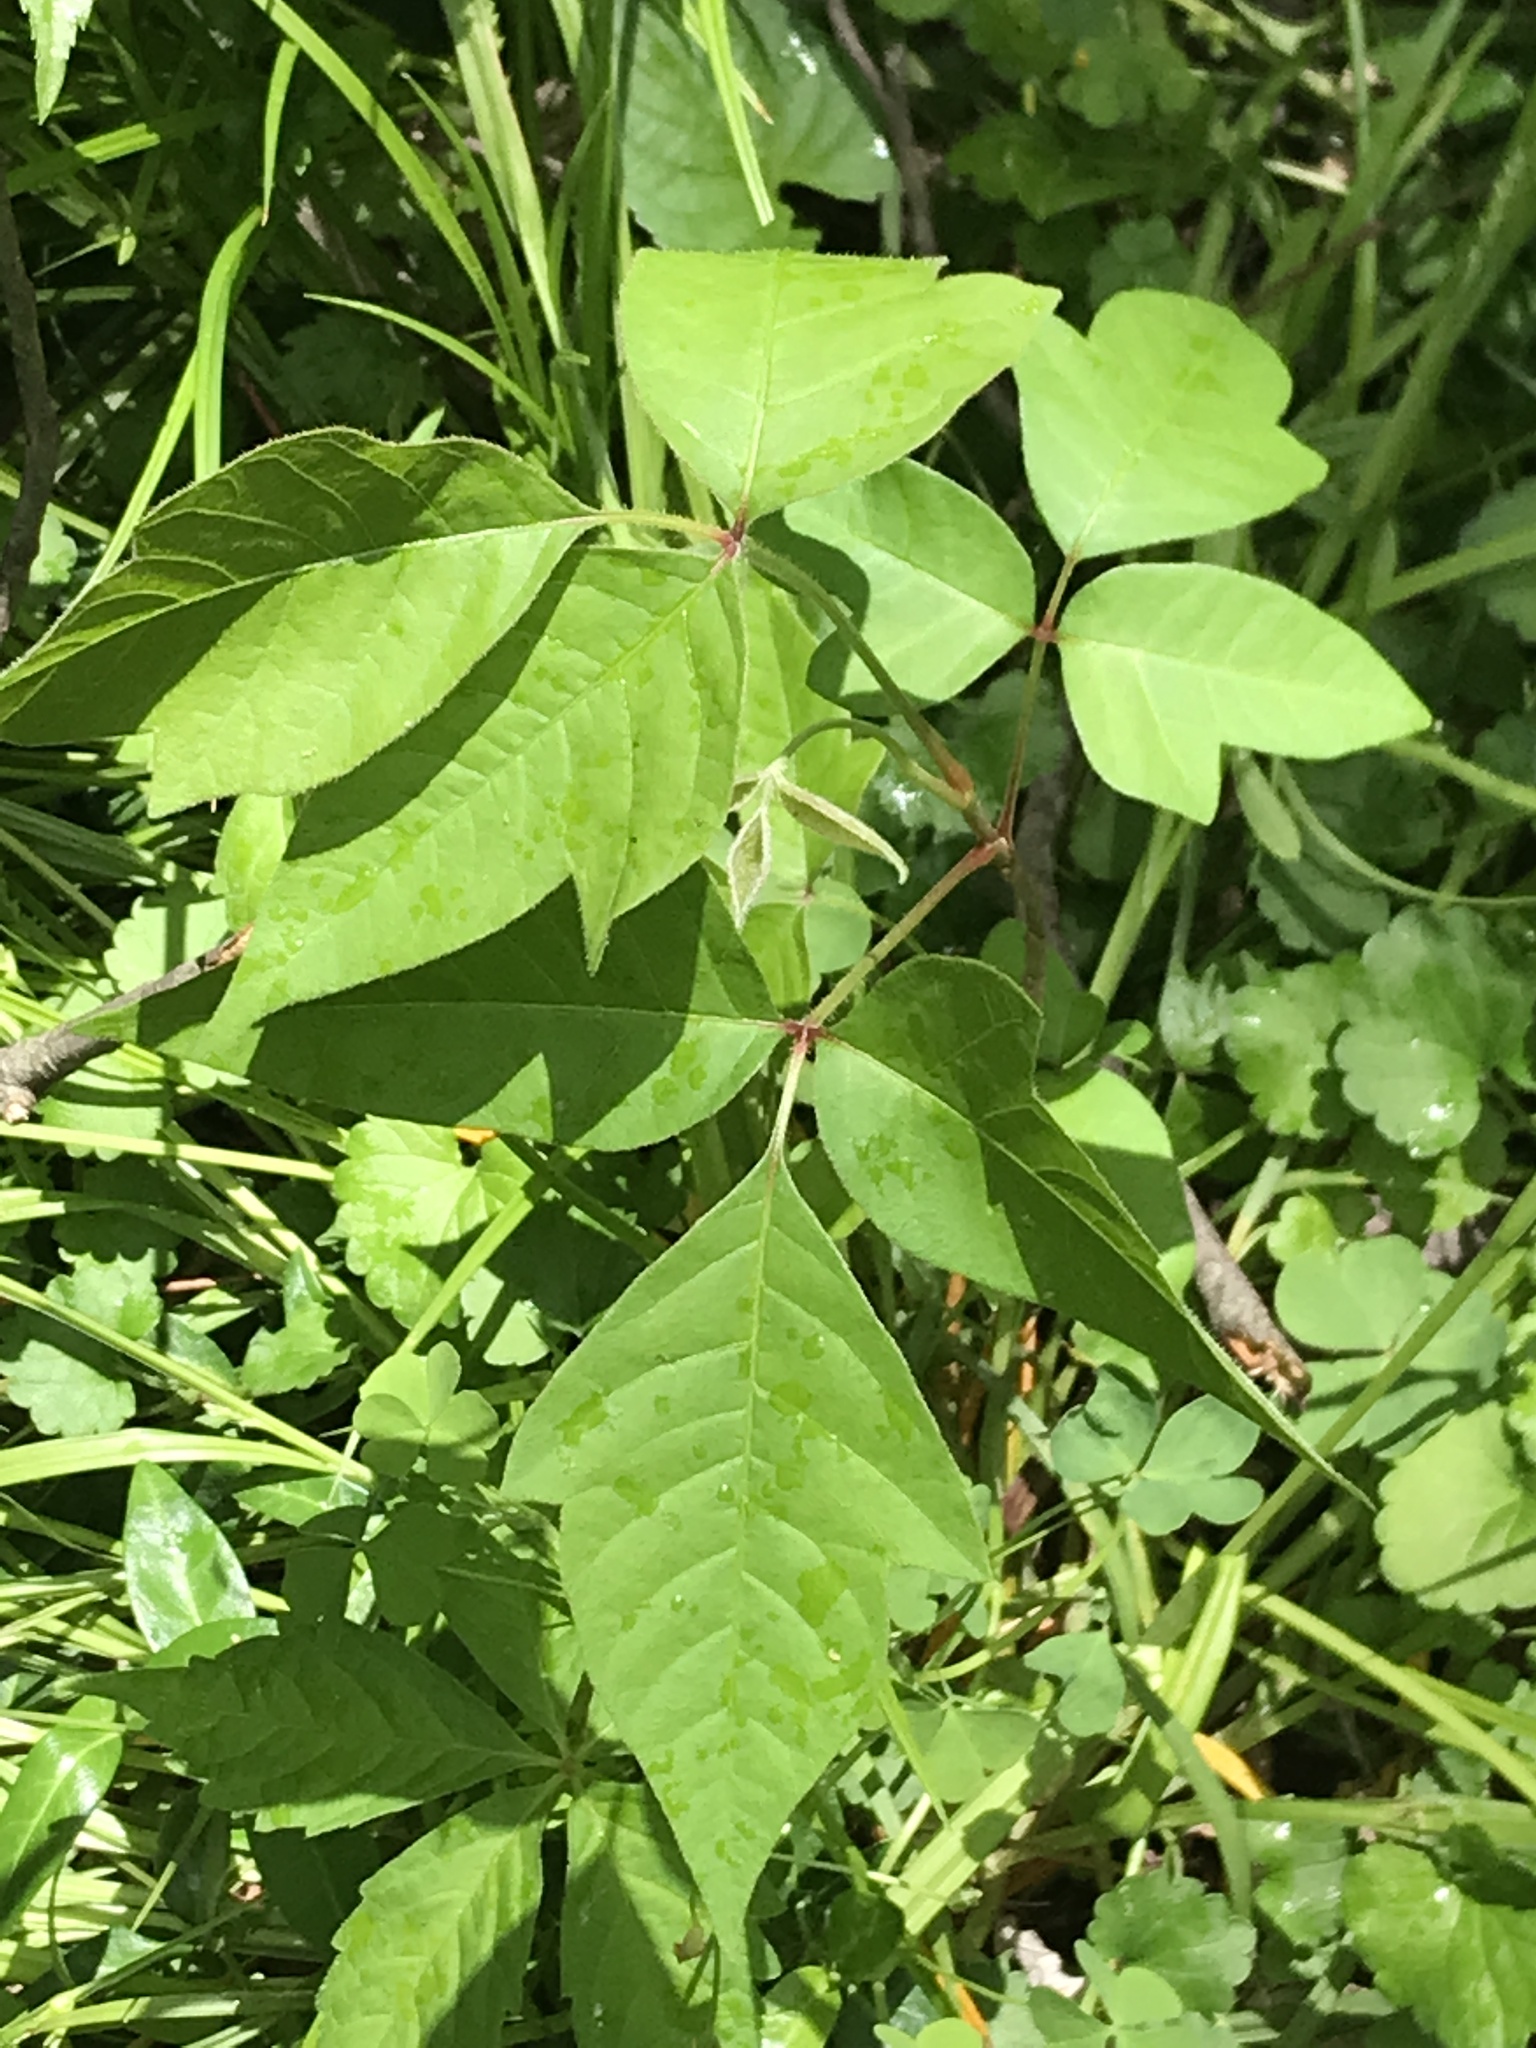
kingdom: Plantae
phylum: Tracheophyta
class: Magnoliopsida
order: Sapindales
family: Anacardiaceae
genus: Toxicodendron
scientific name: Toxicodendron radicans
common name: Poison ivy
